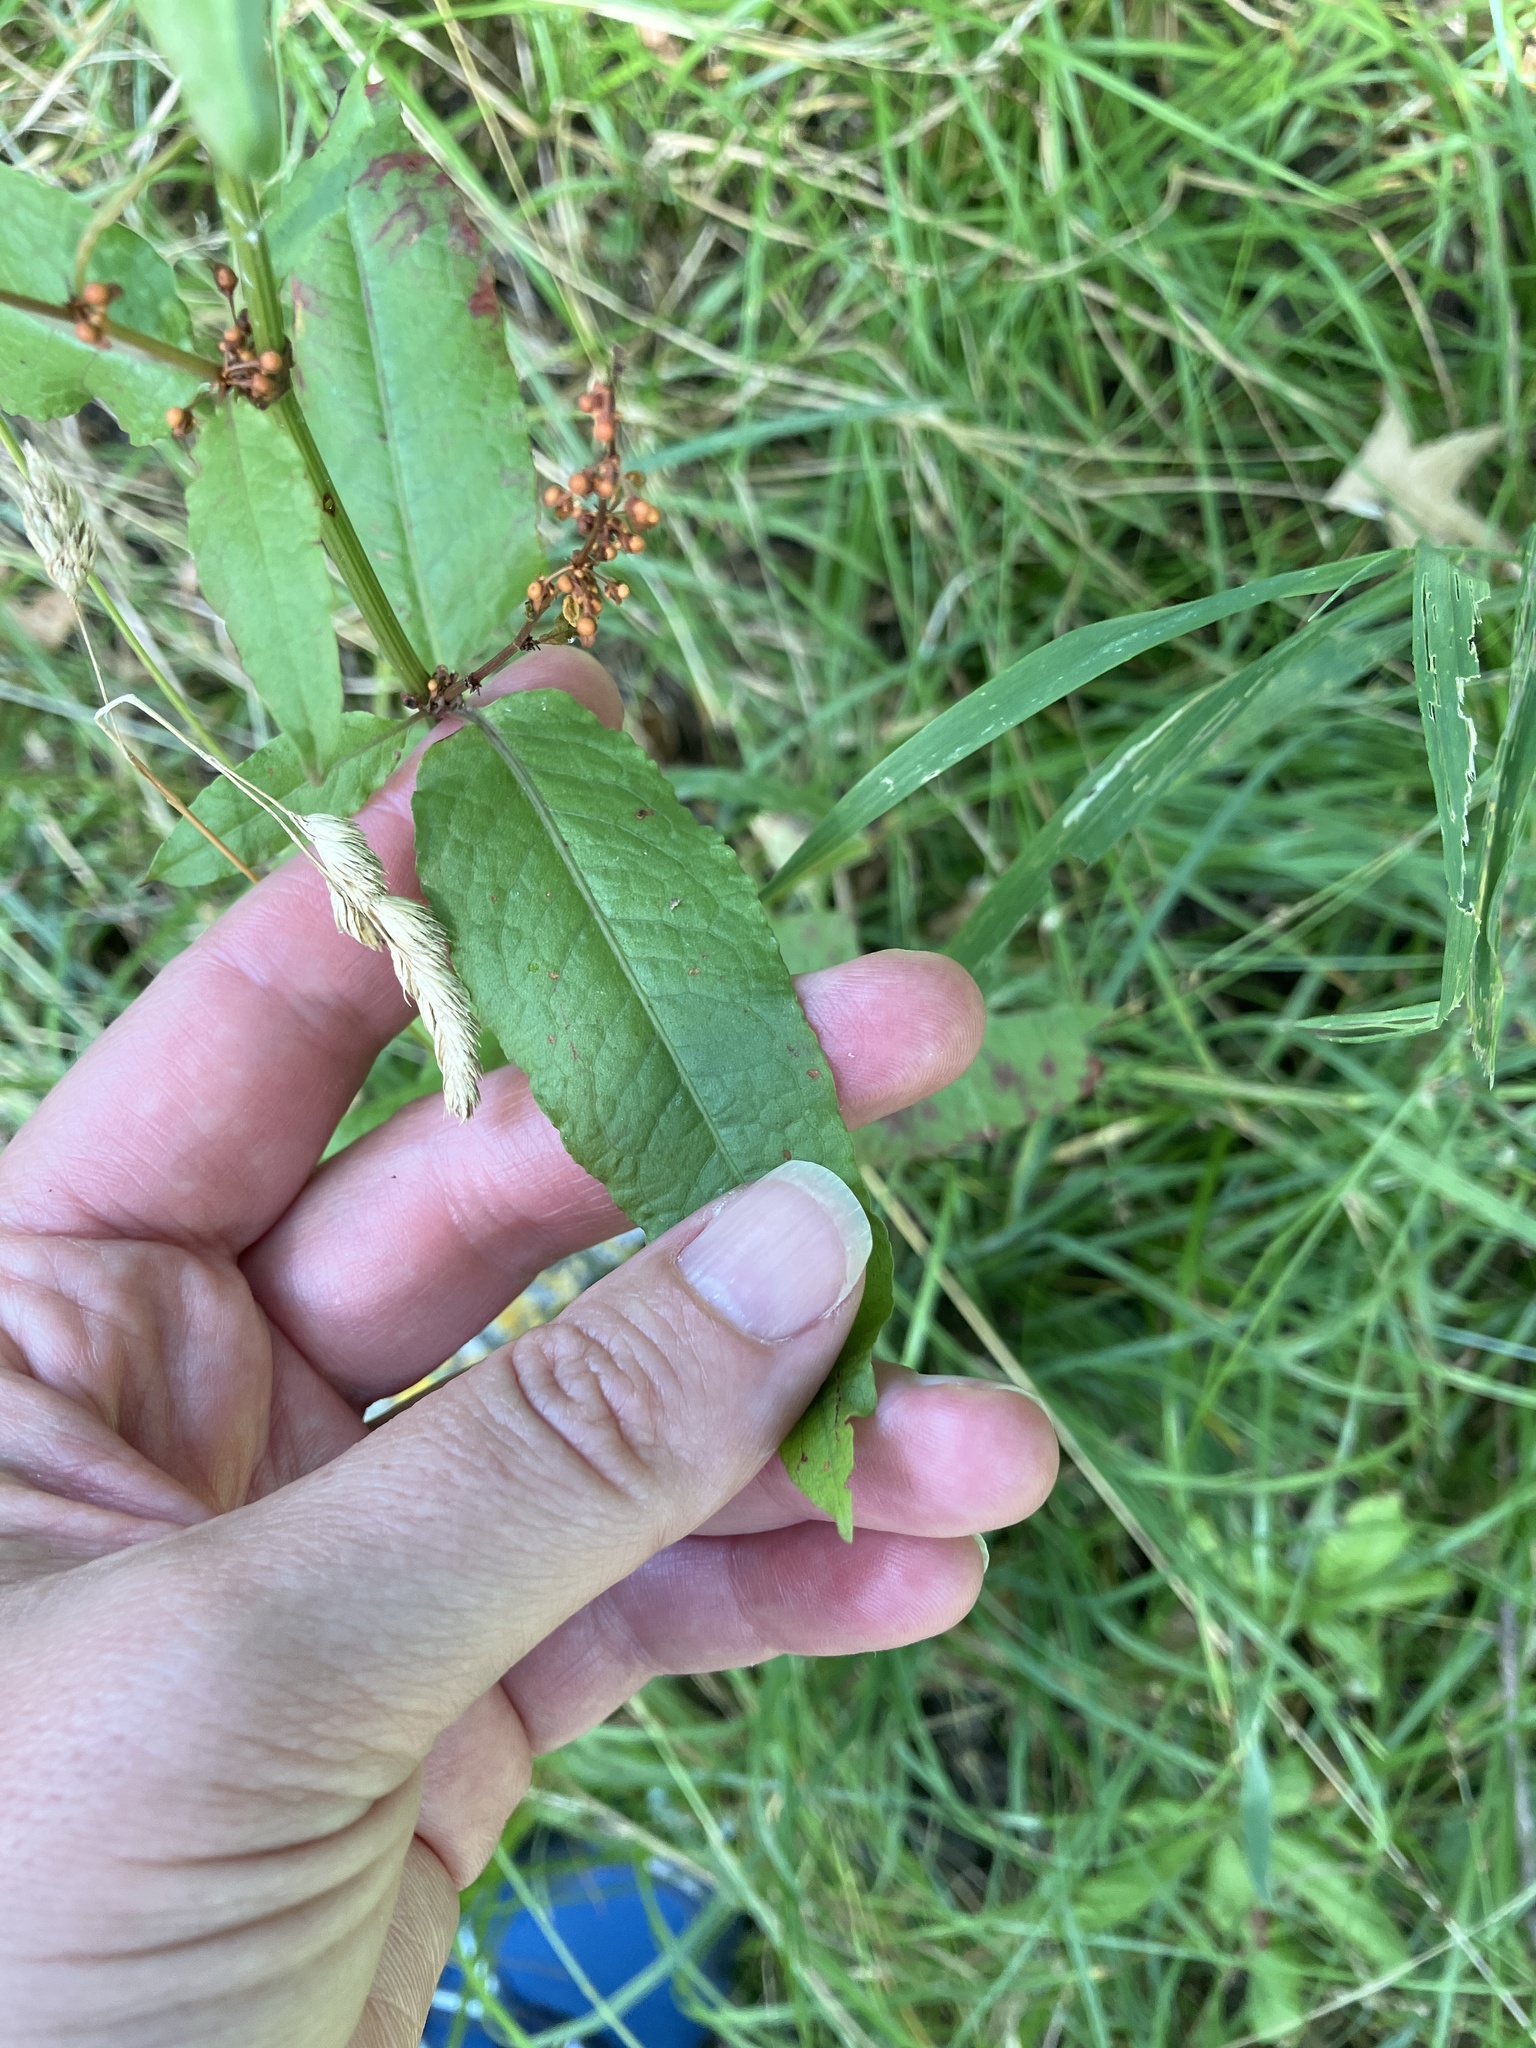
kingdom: Plantae
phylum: Tracheophyta
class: Magnoliopsida
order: Caryophyllales
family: Polygonaceae
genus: Rumex
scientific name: Rumex sanguineus
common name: Wood dock
